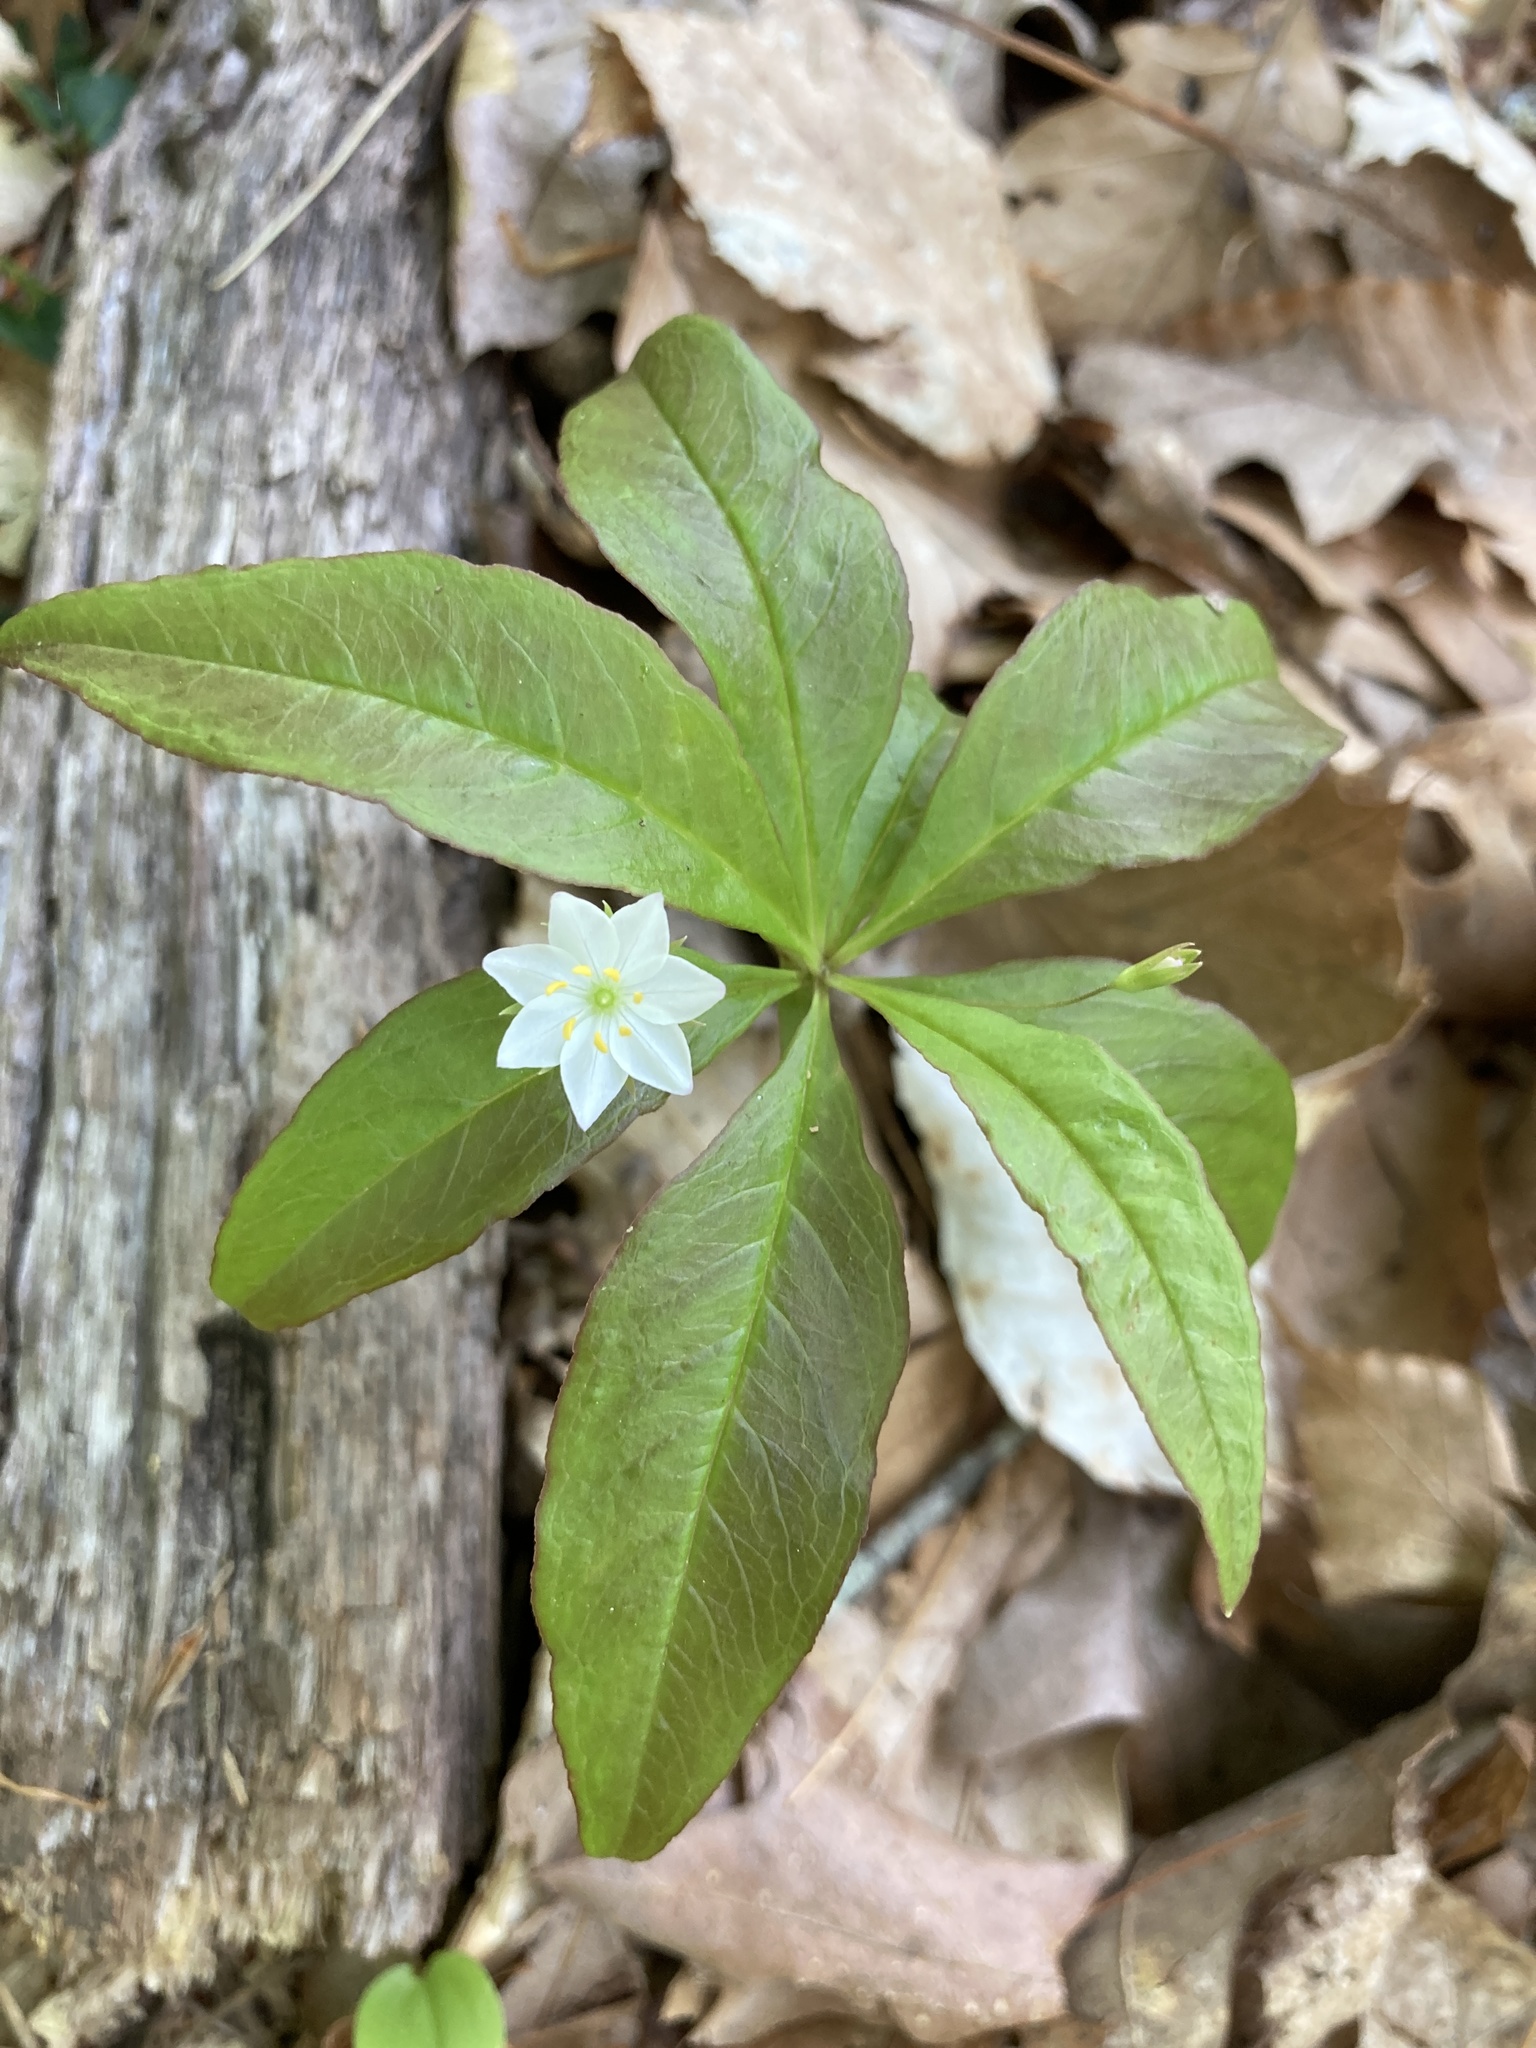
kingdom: Plantae
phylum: Tracheophyta
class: Magnoliopsida
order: Ericales
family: Primulaceae
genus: Lysimachia
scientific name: Lysimachia borealis
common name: American starflower
